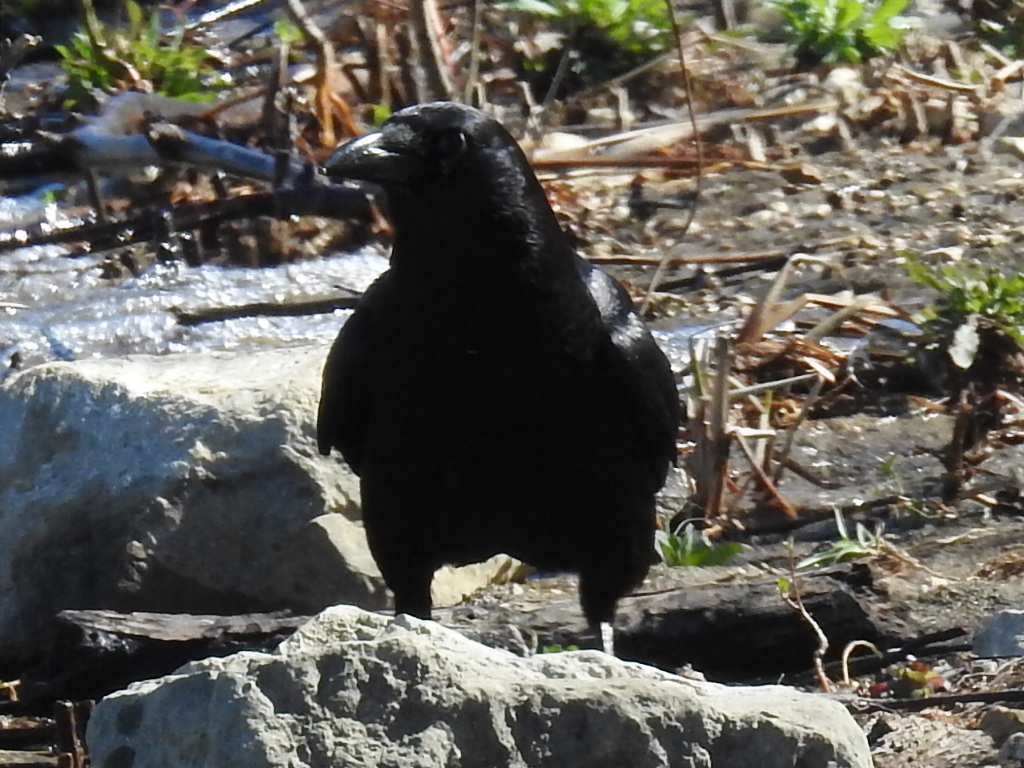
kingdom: Animalia
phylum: Chordata
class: Aves
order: Passeriformes
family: Corvidae
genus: Corvus
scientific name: Corvus brachyrhynchos
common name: American crow
